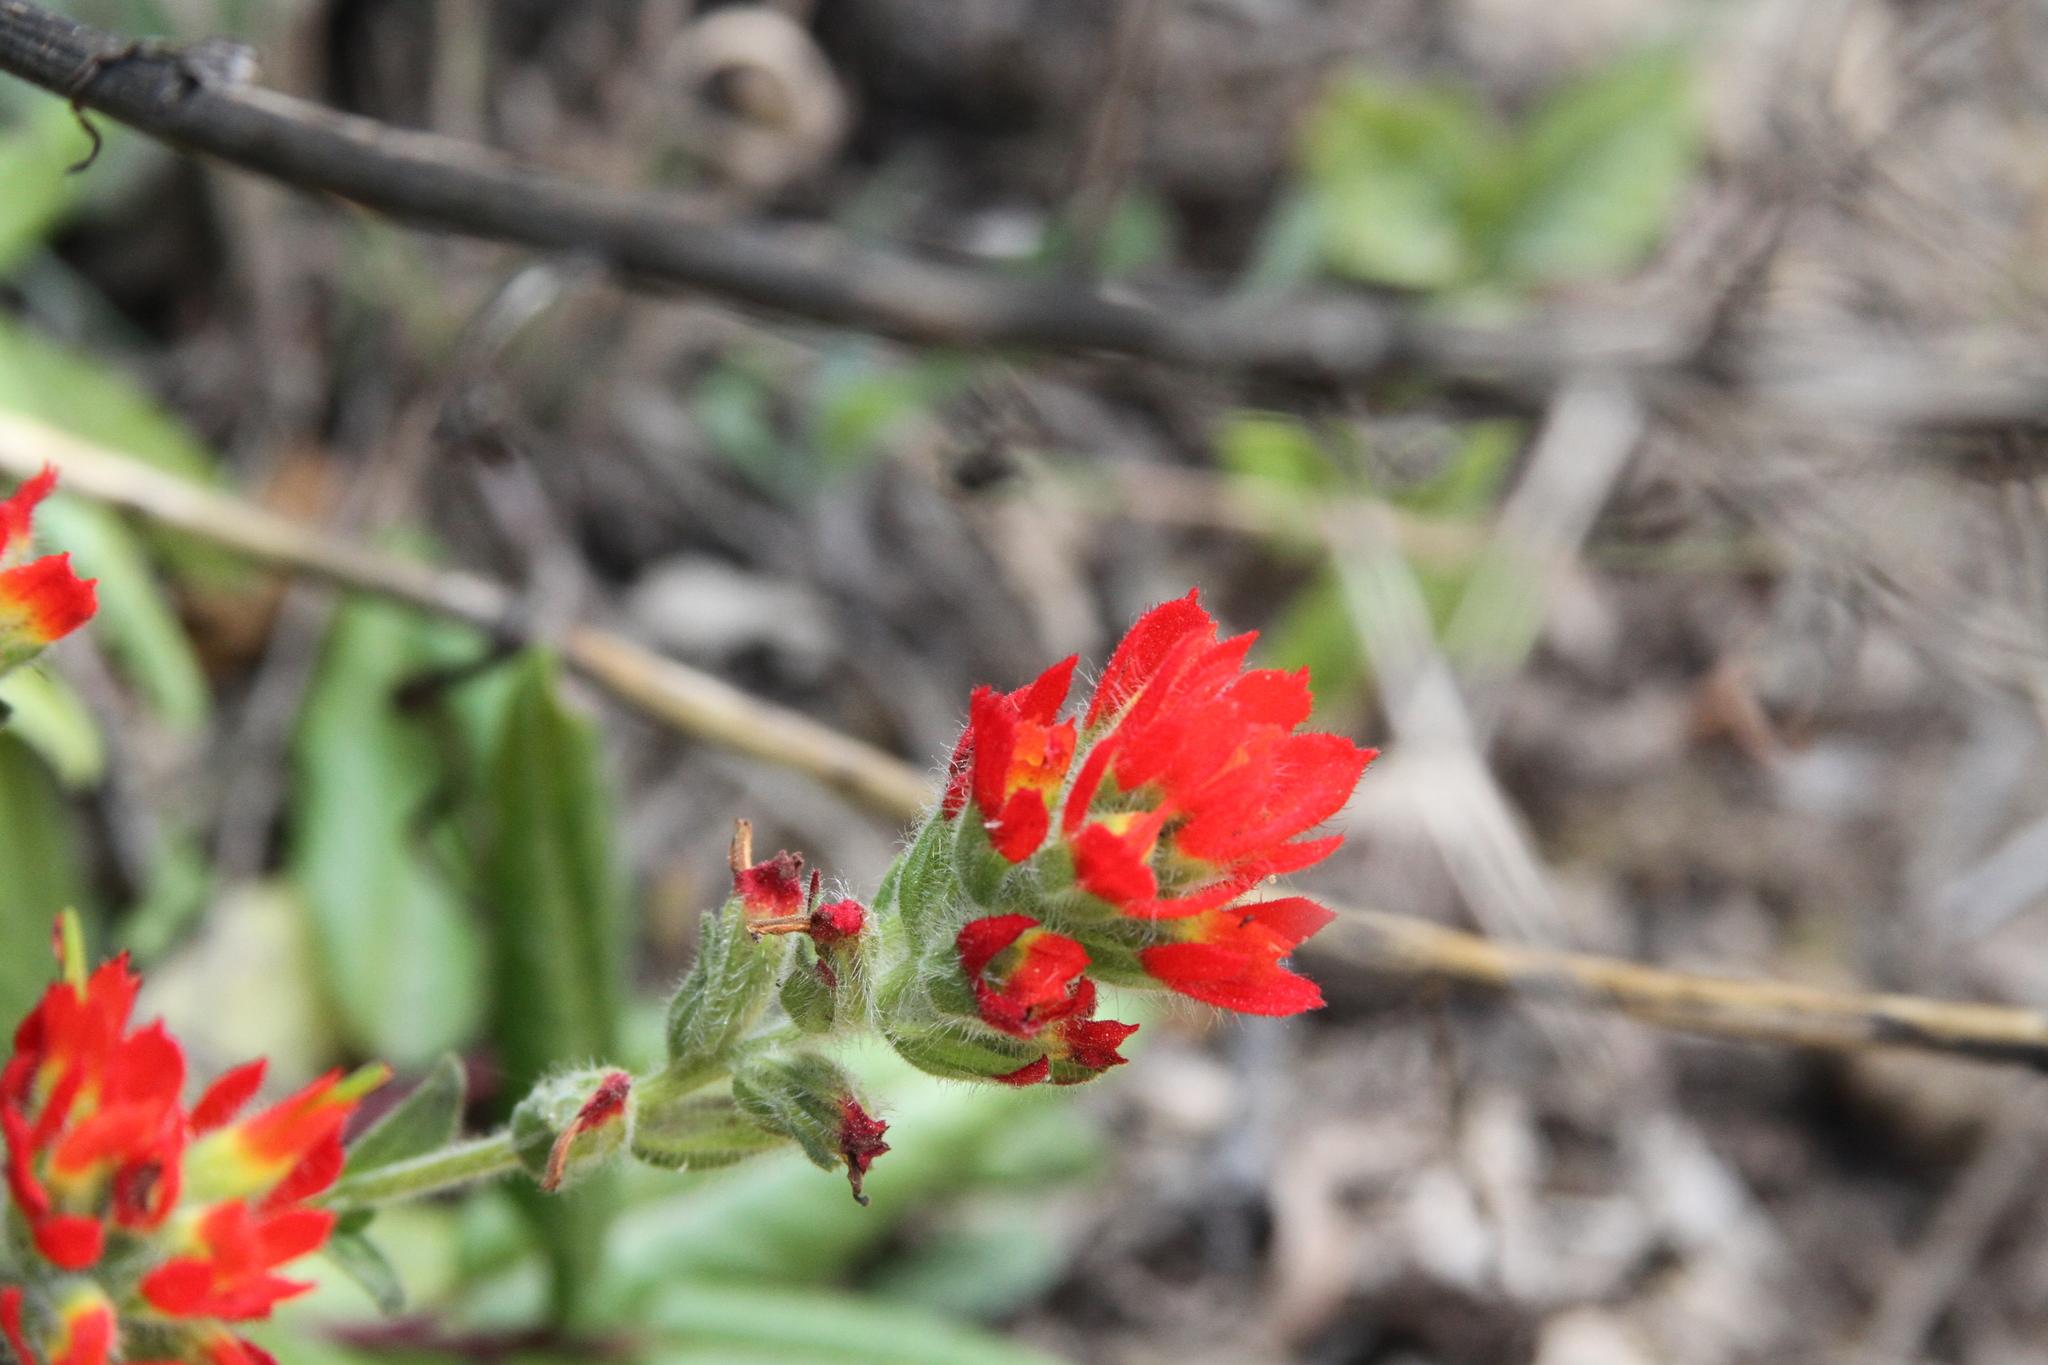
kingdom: Plantae
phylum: Tracheophyta
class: Magnoliopsida
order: Lamiales
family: Orobanchaceae
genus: Castilleja
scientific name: Castilleja affinis
